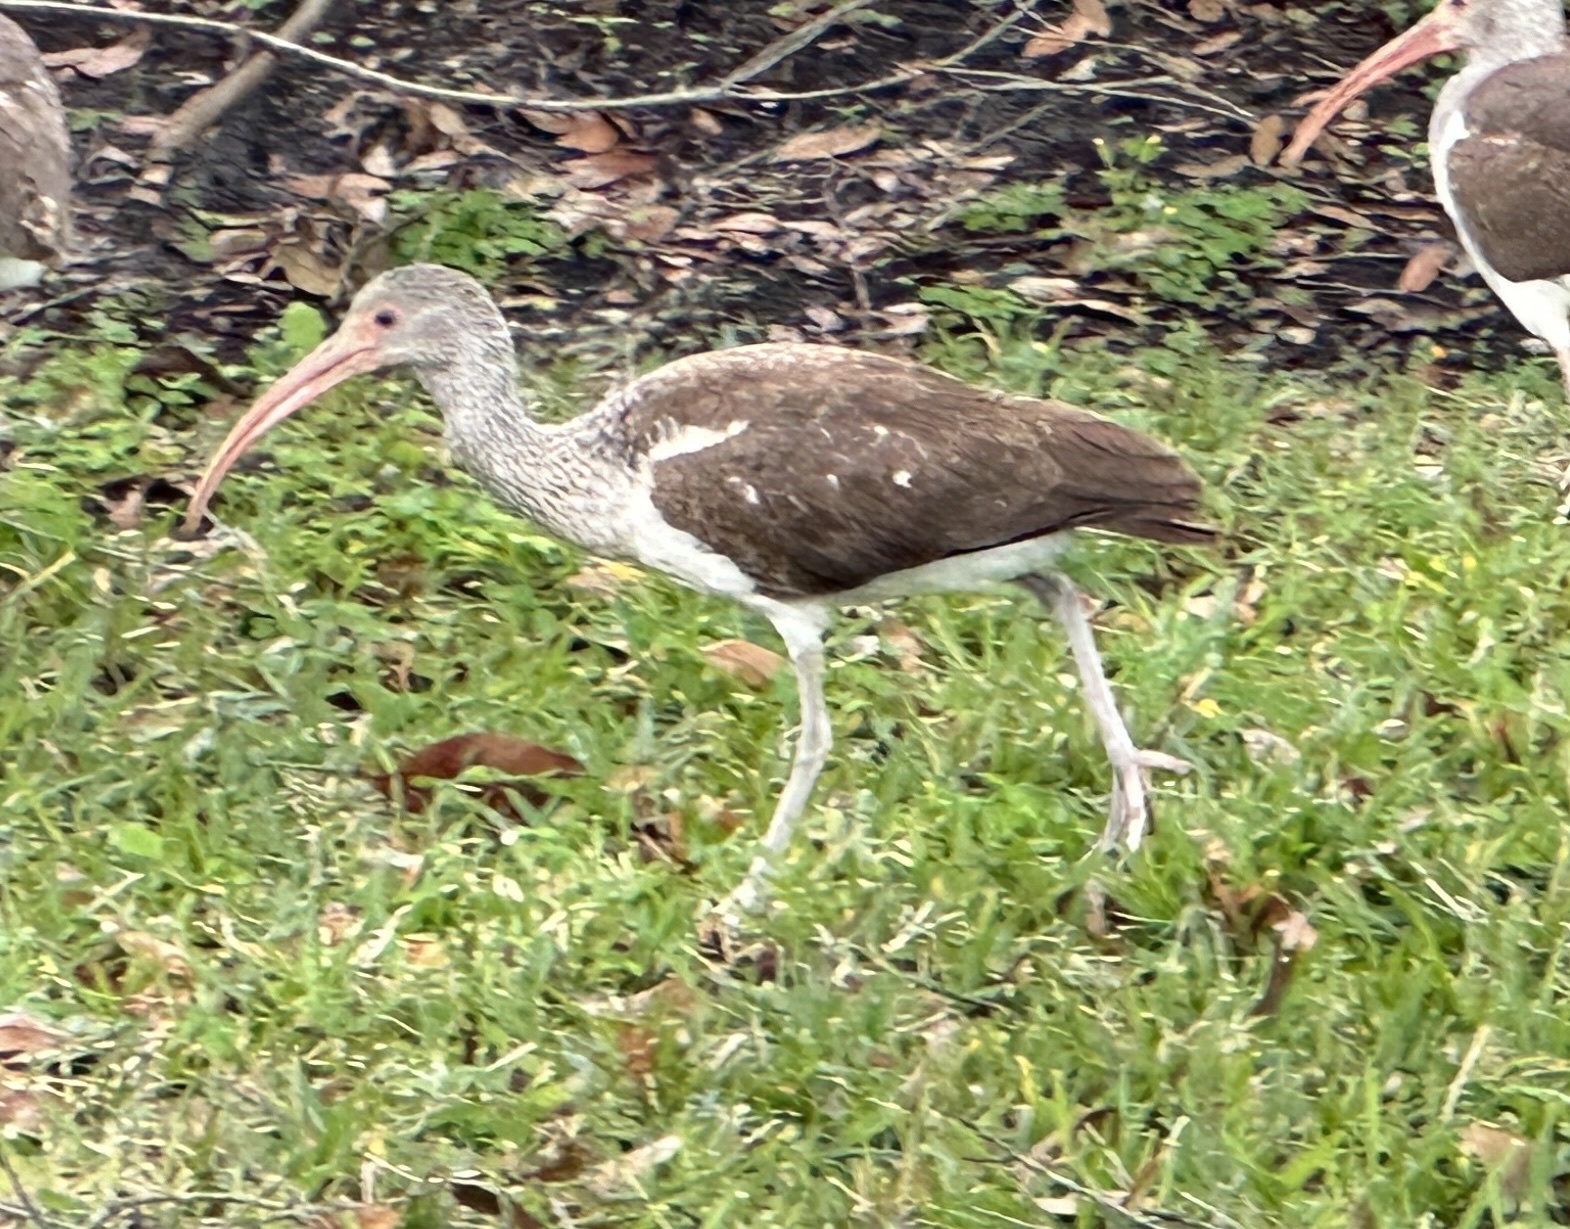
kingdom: Animalia
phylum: Chordata
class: Aves
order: Pelecaniformes
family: Threskiornithidae
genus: Eudocimus
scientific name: Eudocimus albus
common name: White ibis
